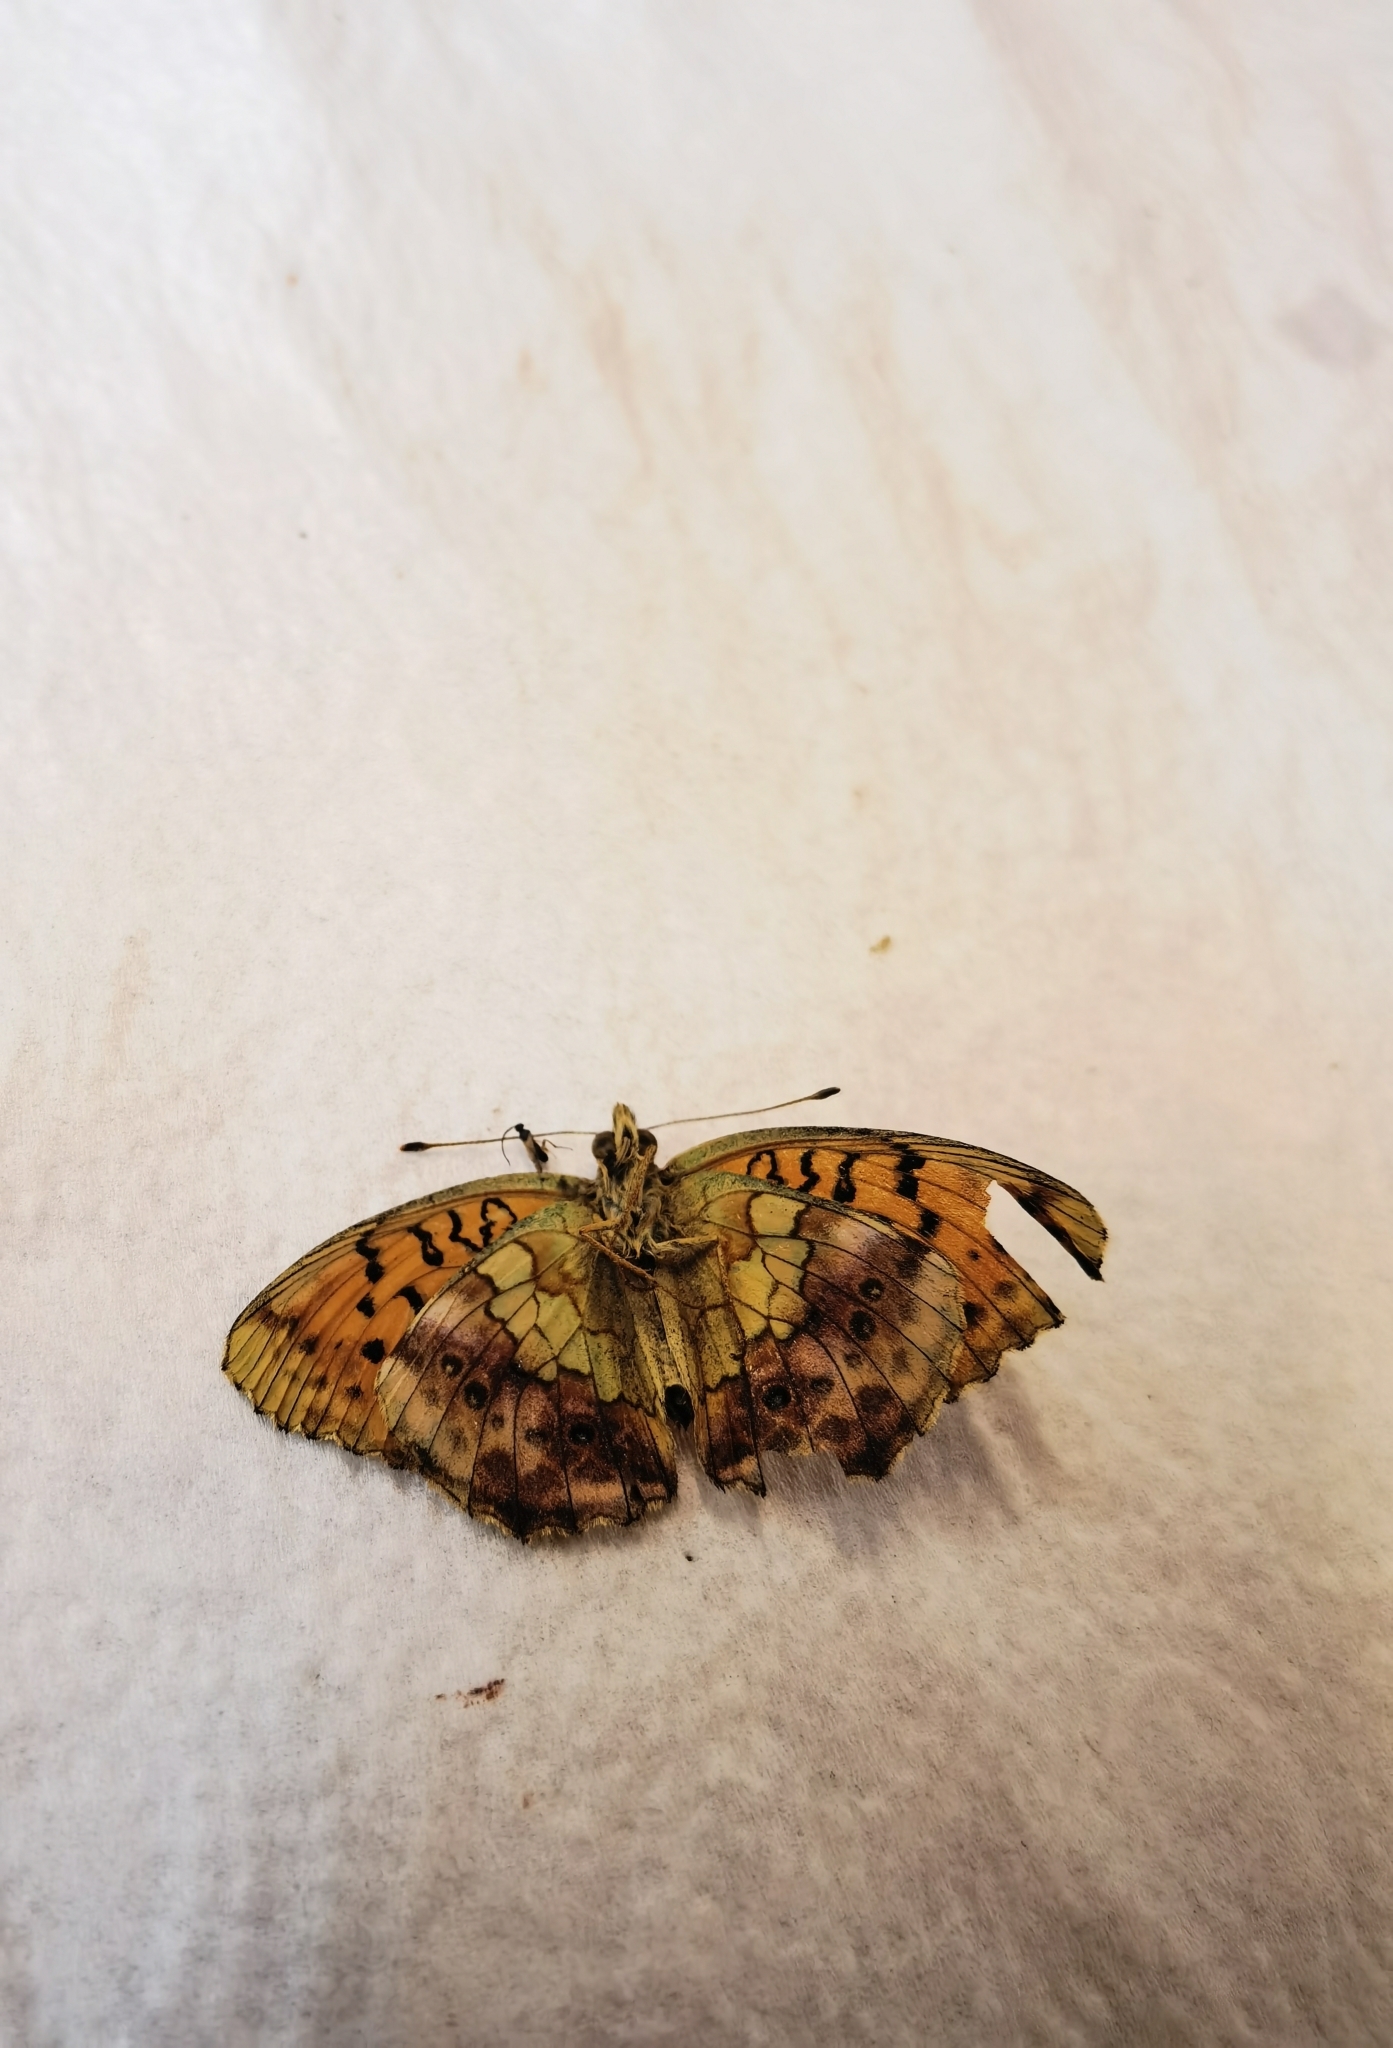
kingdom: Animalia
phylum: Arthropoda
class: Insecta
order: Lepidoptera
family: Nymphalidae
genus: Brenthis
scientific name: Brenthis daphne
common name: Marbled fritillary
